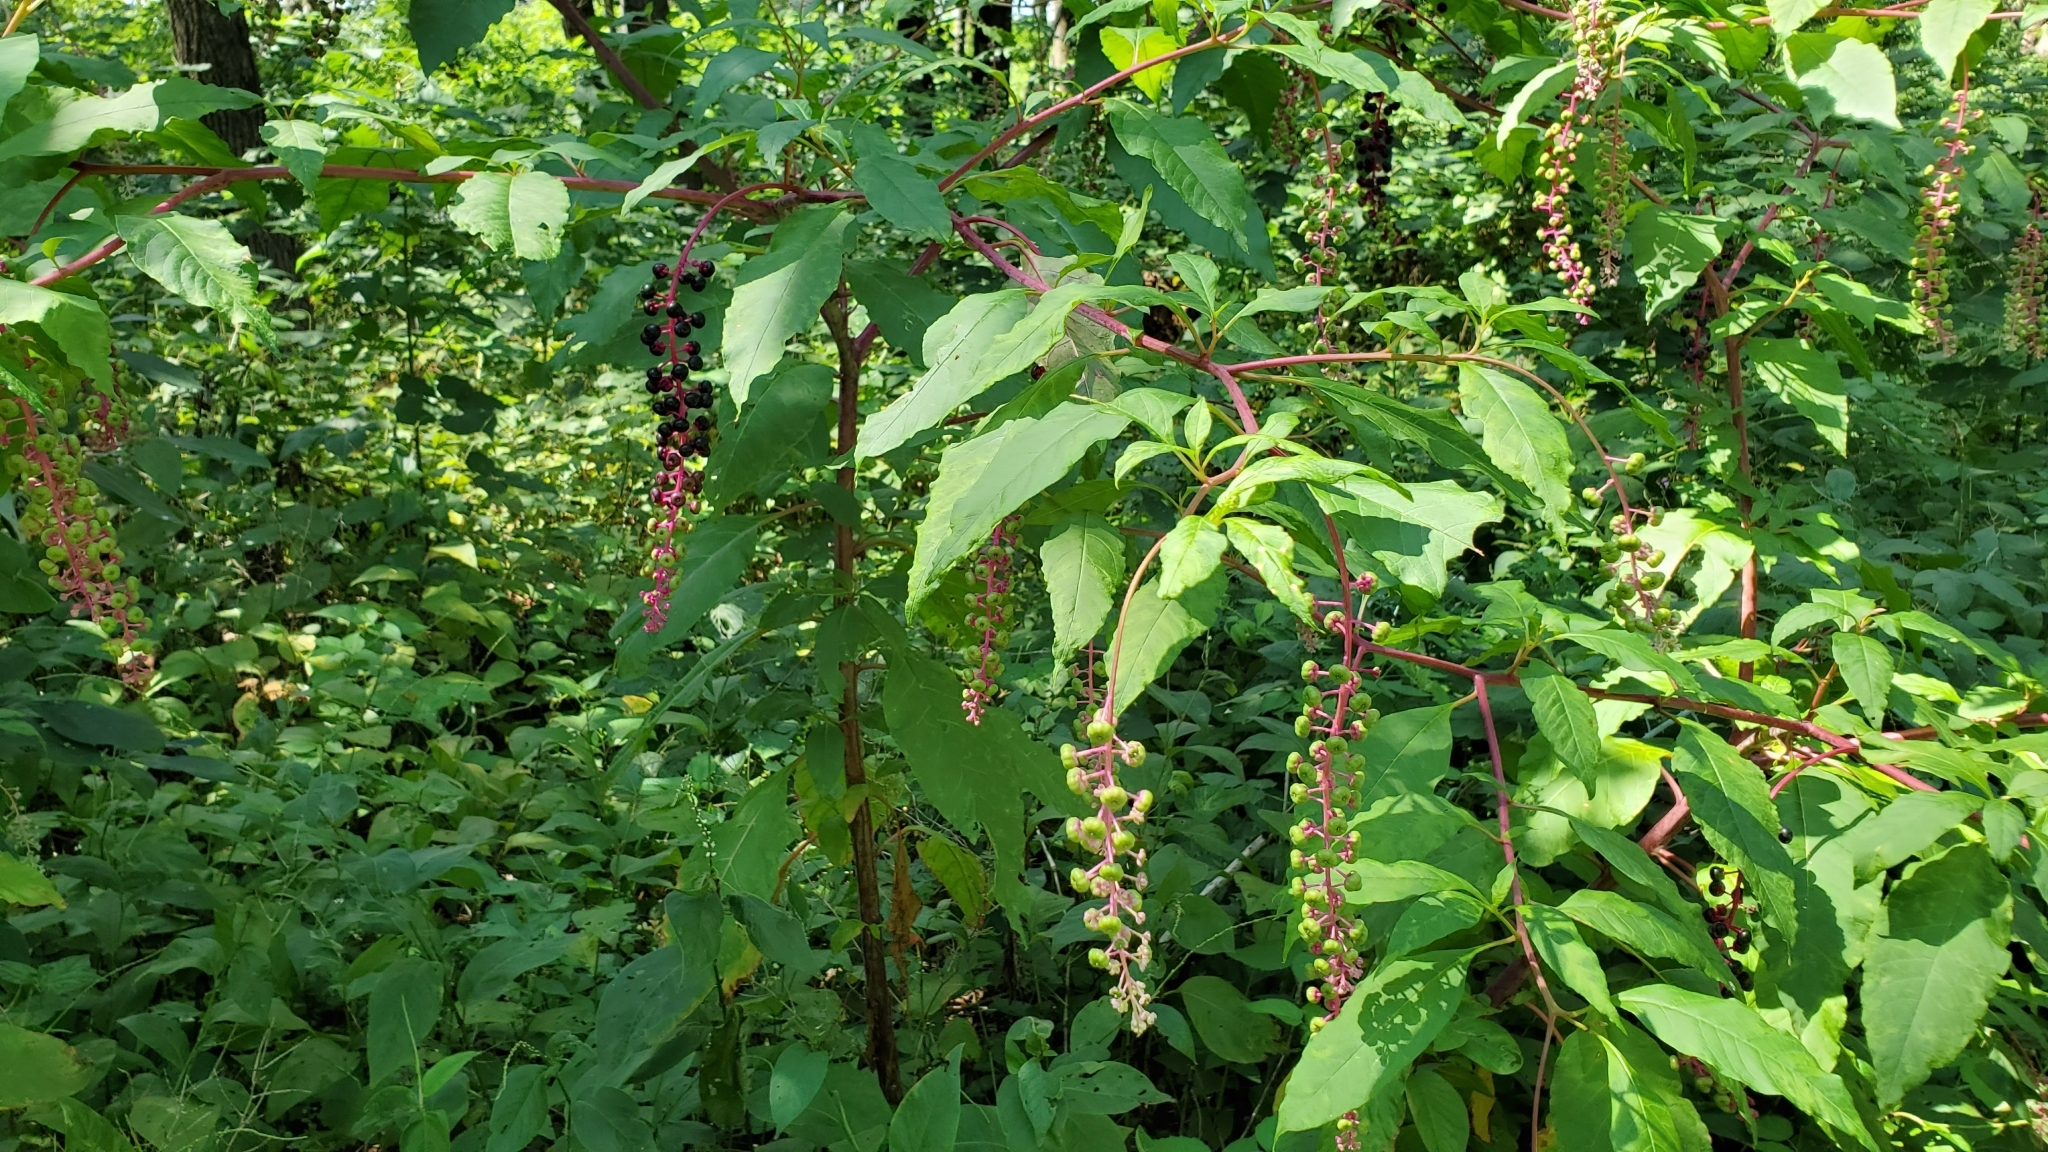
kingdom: Plantae
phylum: Tracheophyta
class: Magnoliopsida
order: Caryophyllales
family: Phytolaccaceae
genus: Phytolacca
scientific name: Phytolacca americana
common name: American pokeweed
